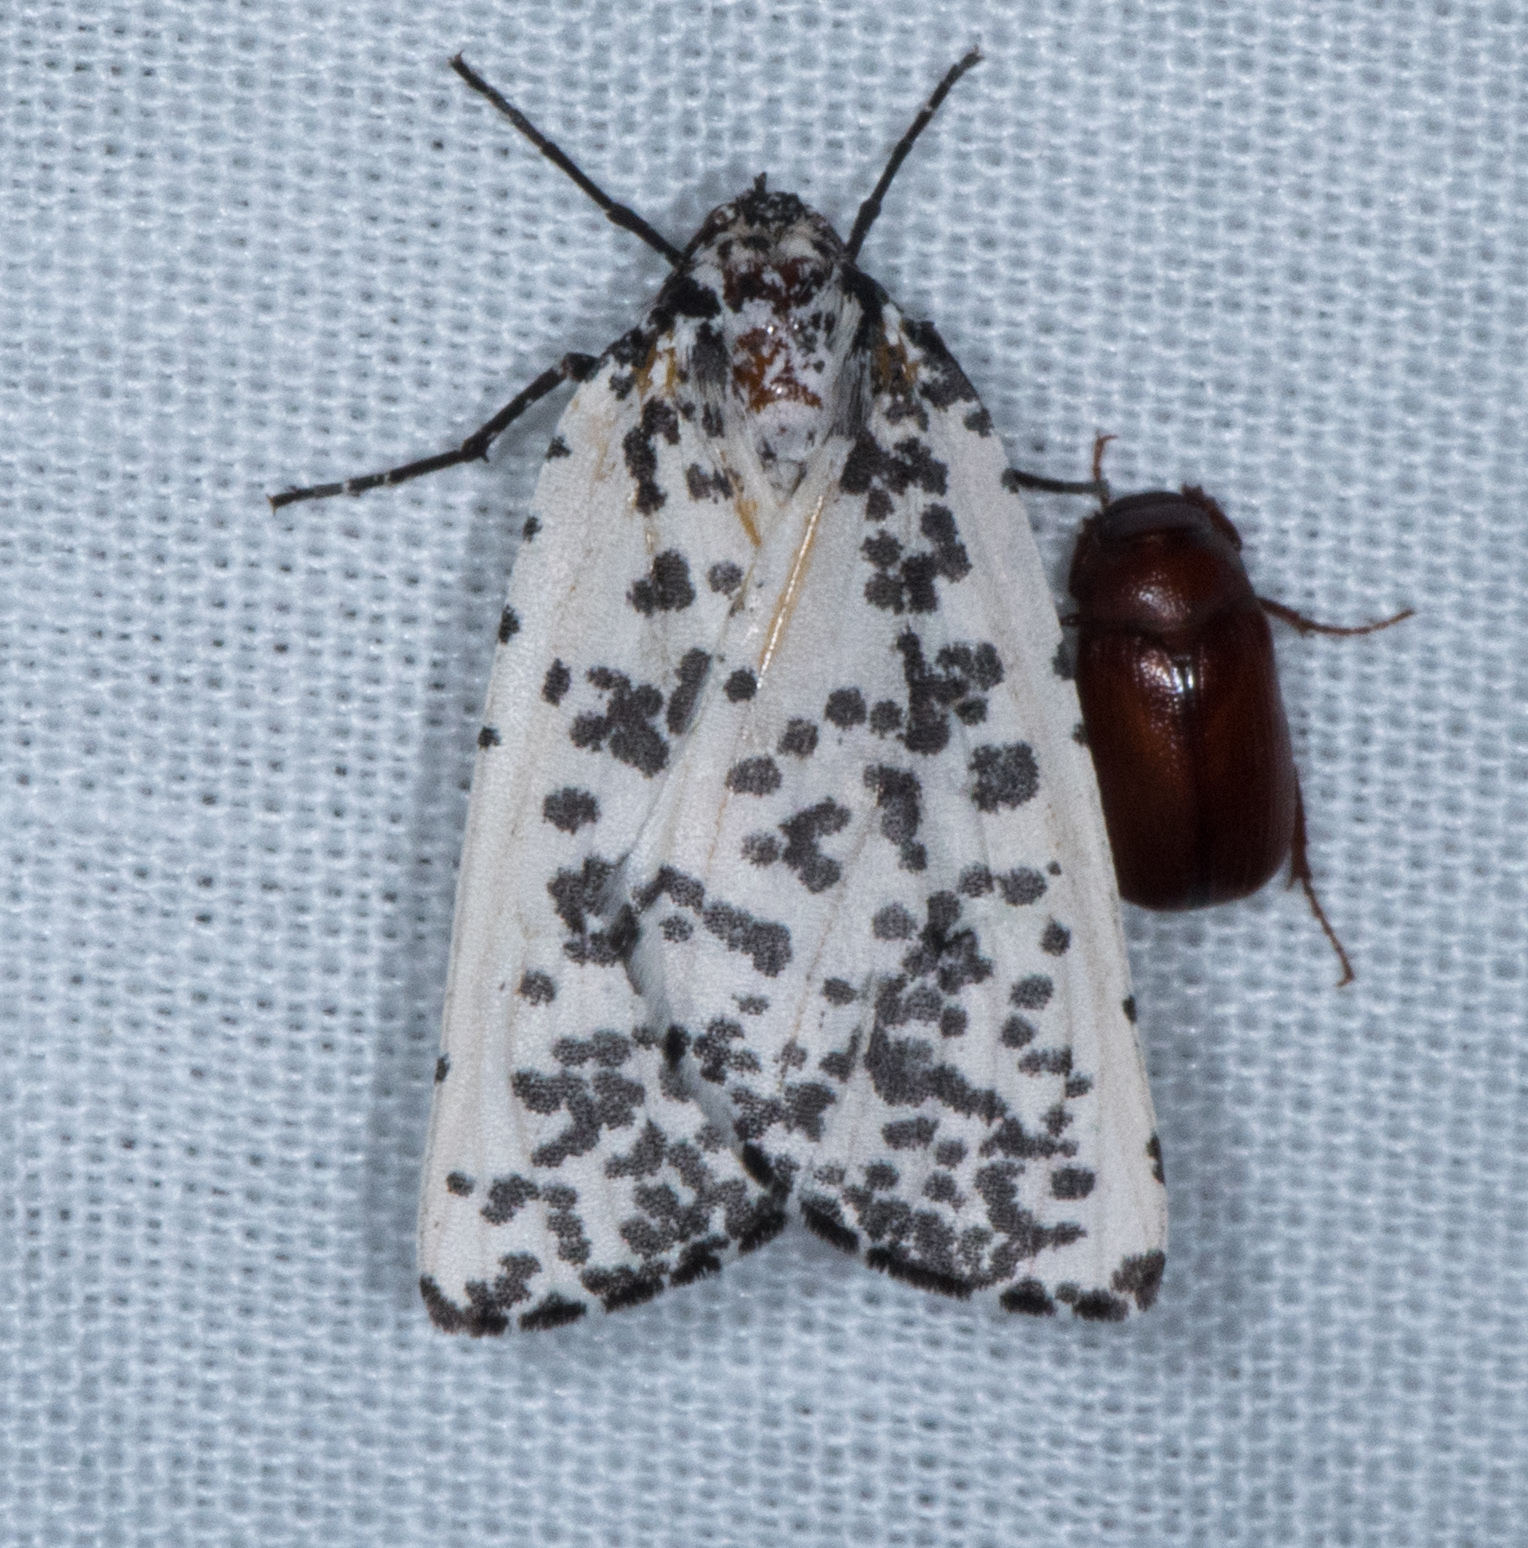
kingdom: Animalia
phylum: Arthropoda
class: Insecta
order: Lepidoptera
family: Geometridae
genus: Eucaterva
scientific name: Eucaterva variaria
